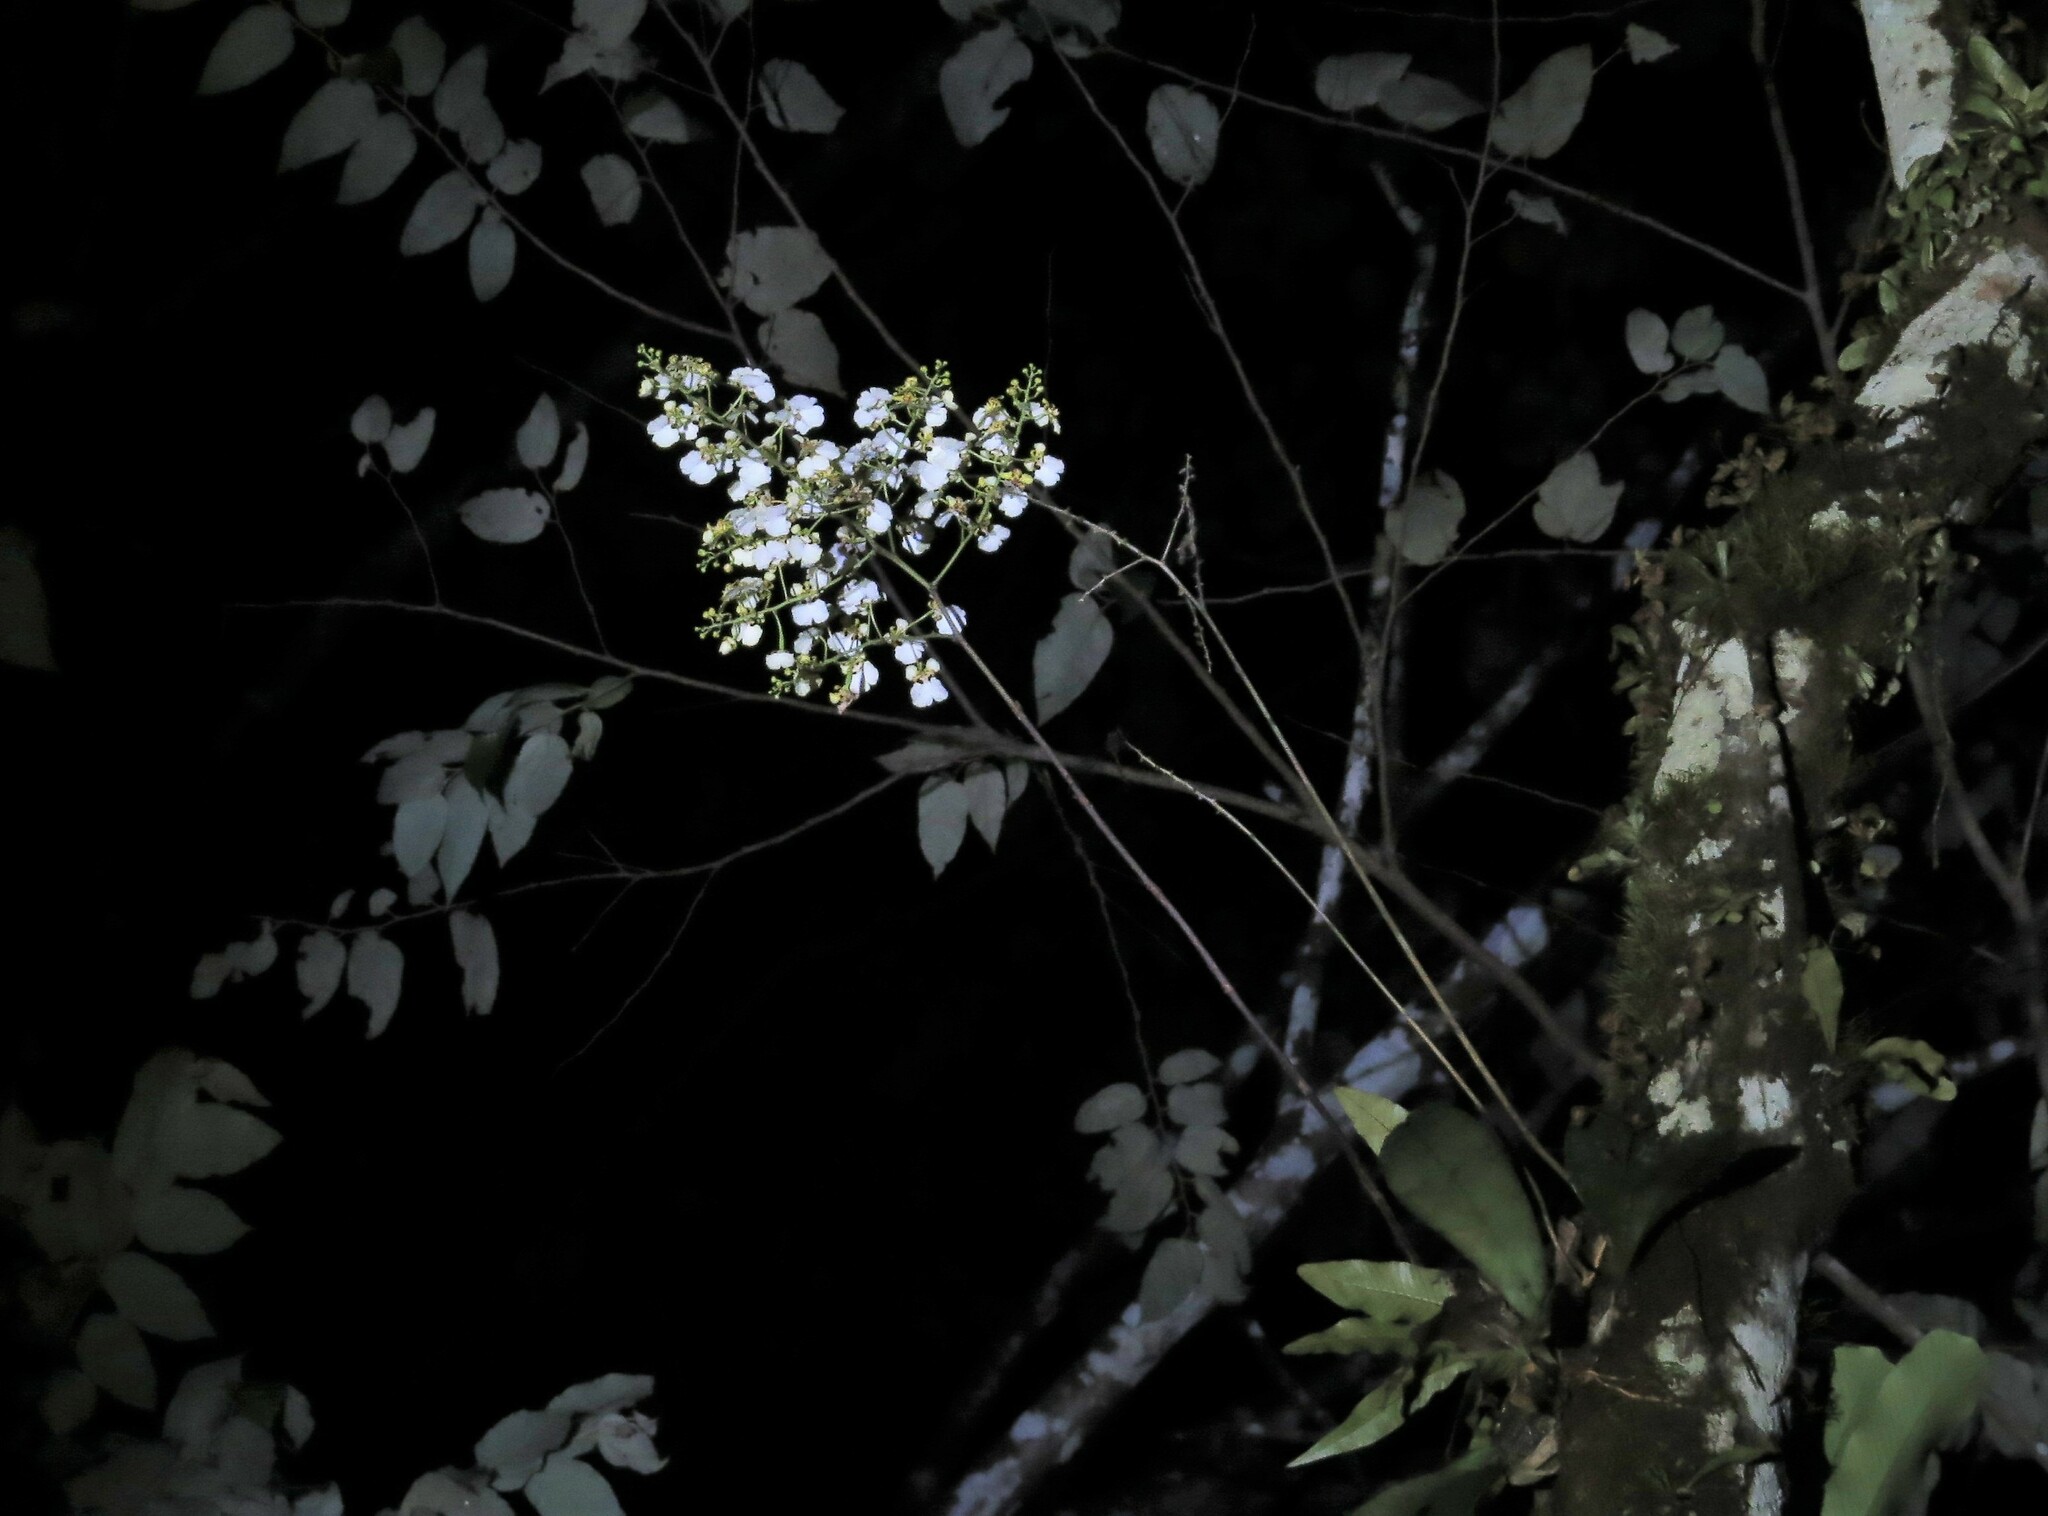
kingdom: Plantae
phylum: Tracheophyta
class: Liliopsida
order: Asparagales
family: Orchidaceae
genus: Rossioglossum
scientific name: Rossioglossum ampliatum
